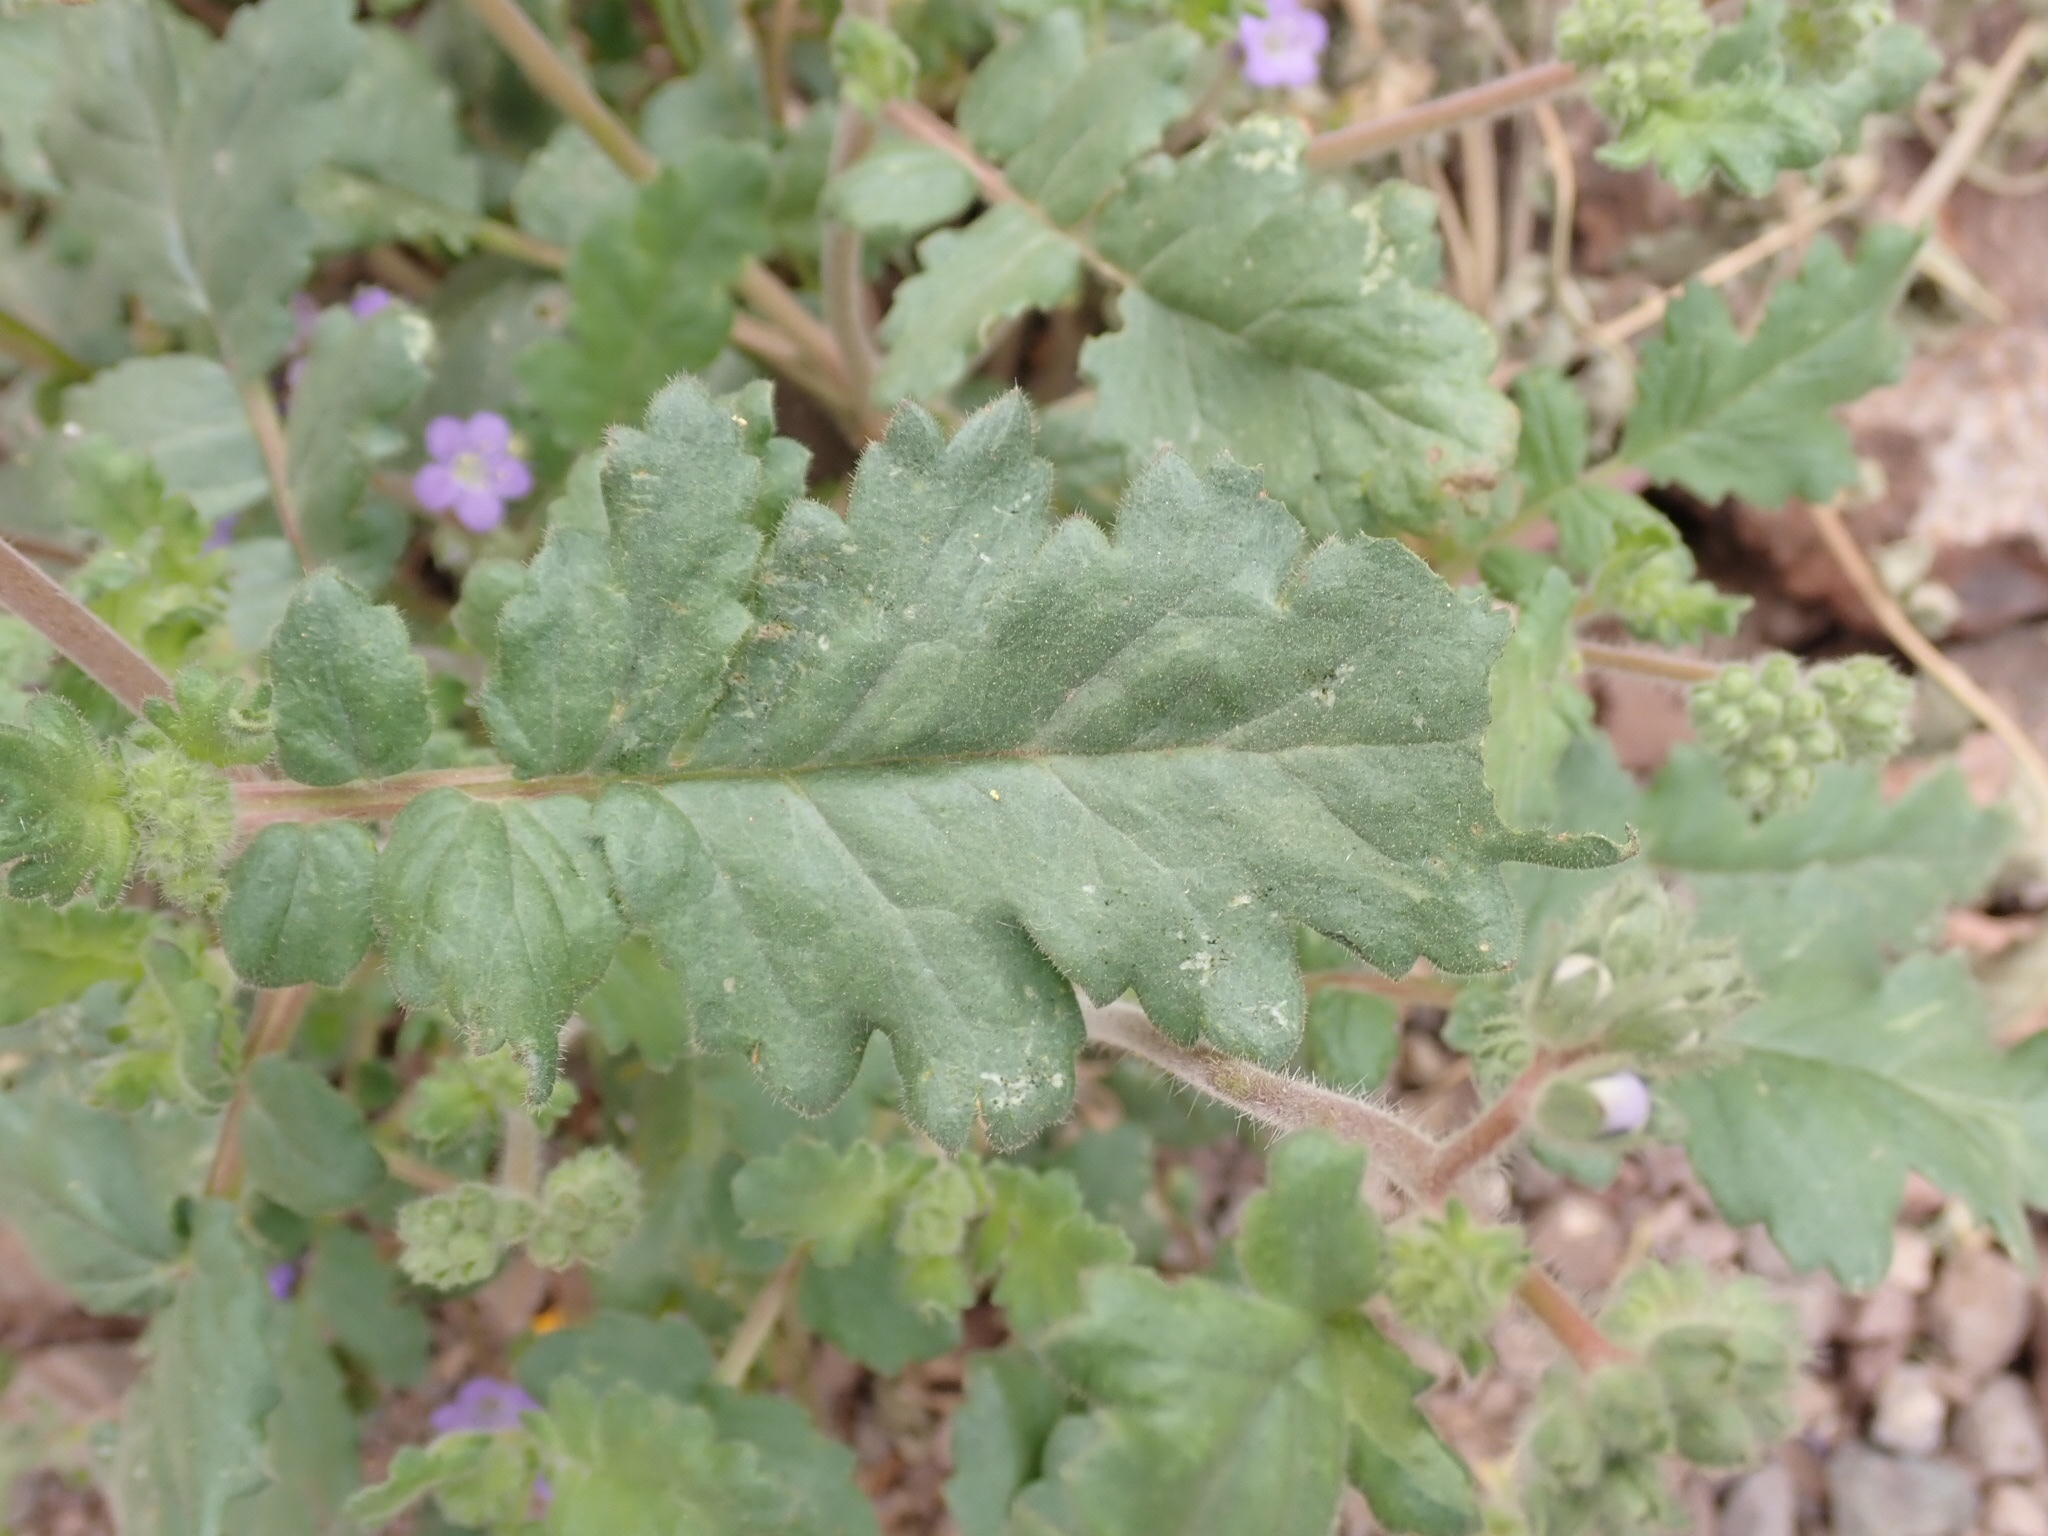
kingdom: Plantae
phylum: Tracheophyta
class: Magnoliopsida
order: Boraginales
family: Hydrophyllaceae
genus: Phacelia
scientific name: Phacelia crenulata
